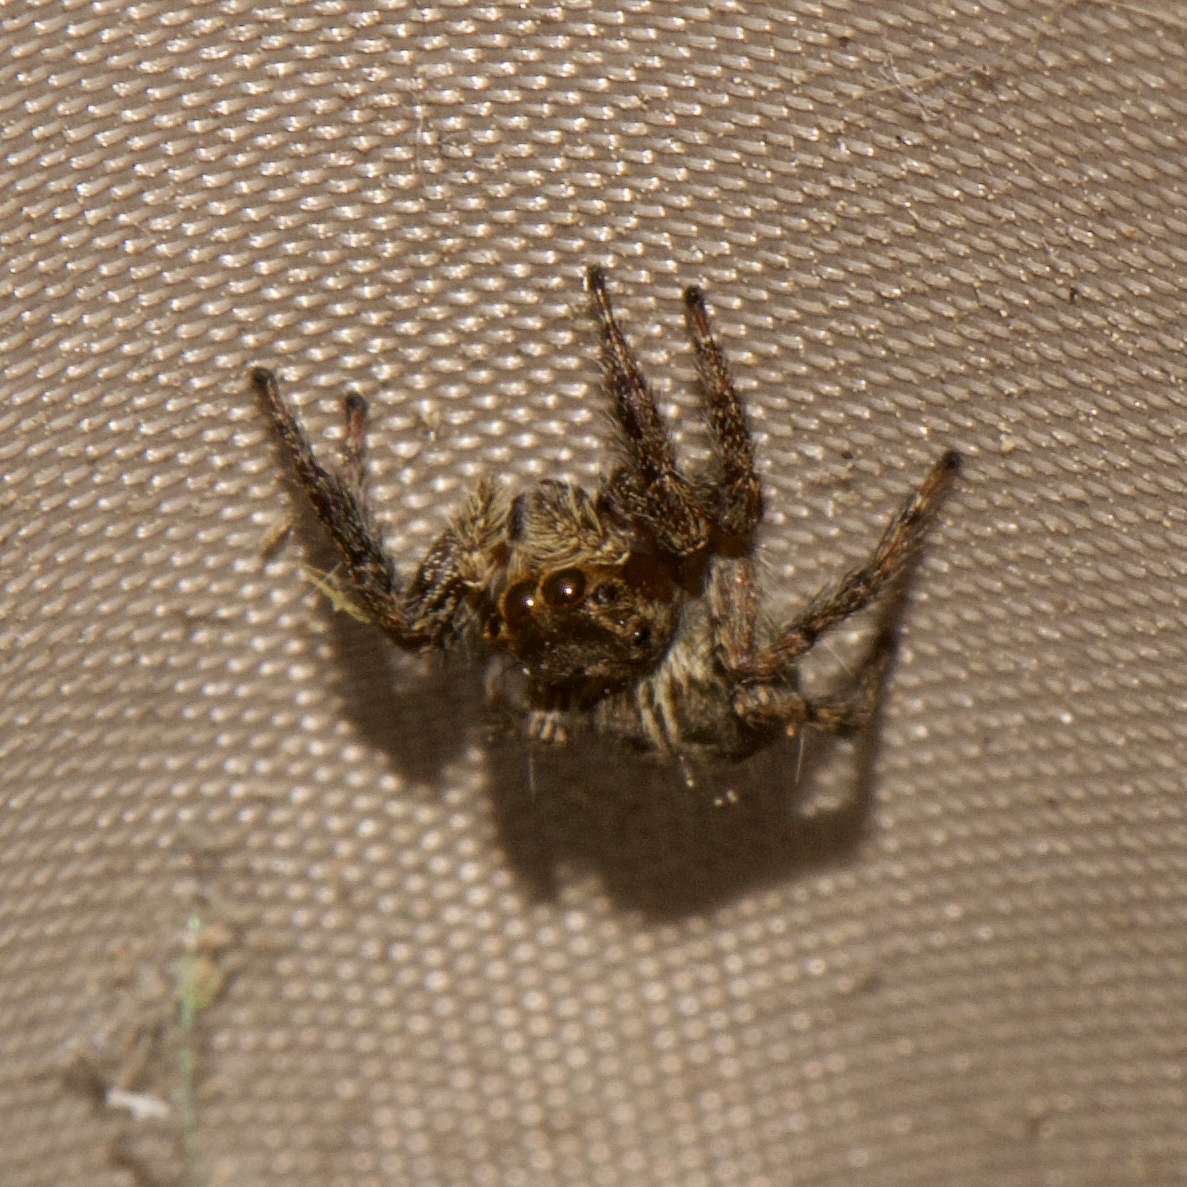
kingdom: Animalia
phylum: Arthropoda
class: Arachnida
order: Araneae
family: Salticidae
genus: Plexippus
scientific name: Plexippus paykulli
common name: Pantropical jumper
